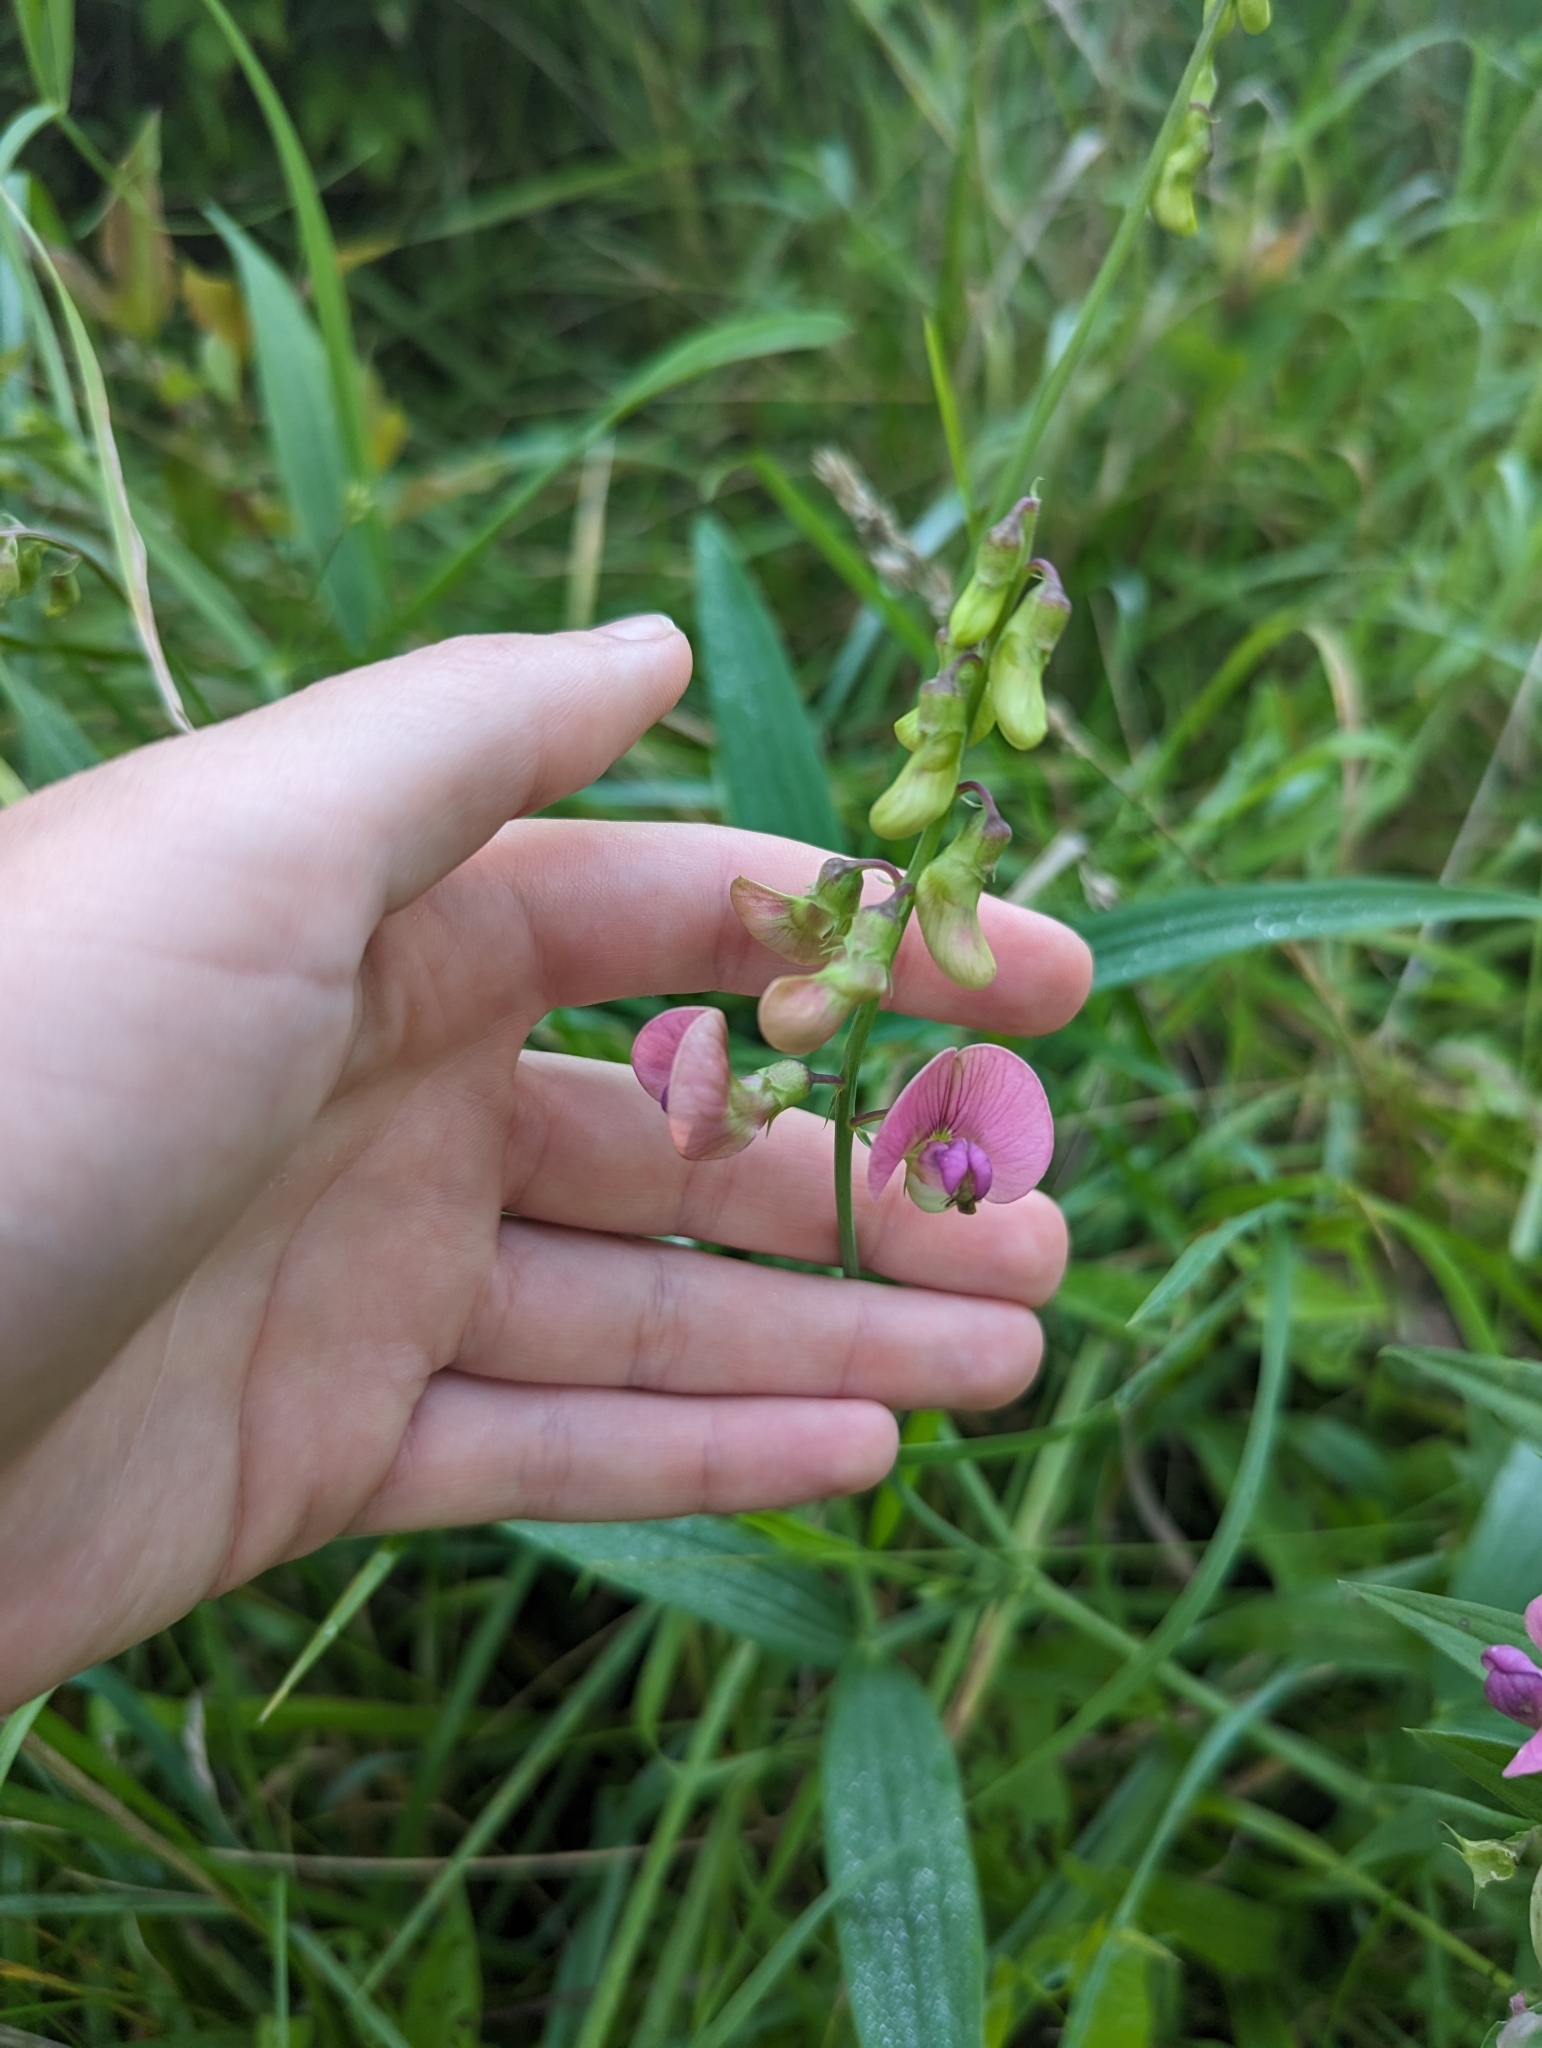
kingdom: Plantae
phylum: Tracheophyta
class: Magnoliopsida
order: Fabales
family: Fabaceae
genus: Lathyrus
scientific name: Lathyrus sylvestris
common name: Flat pea
